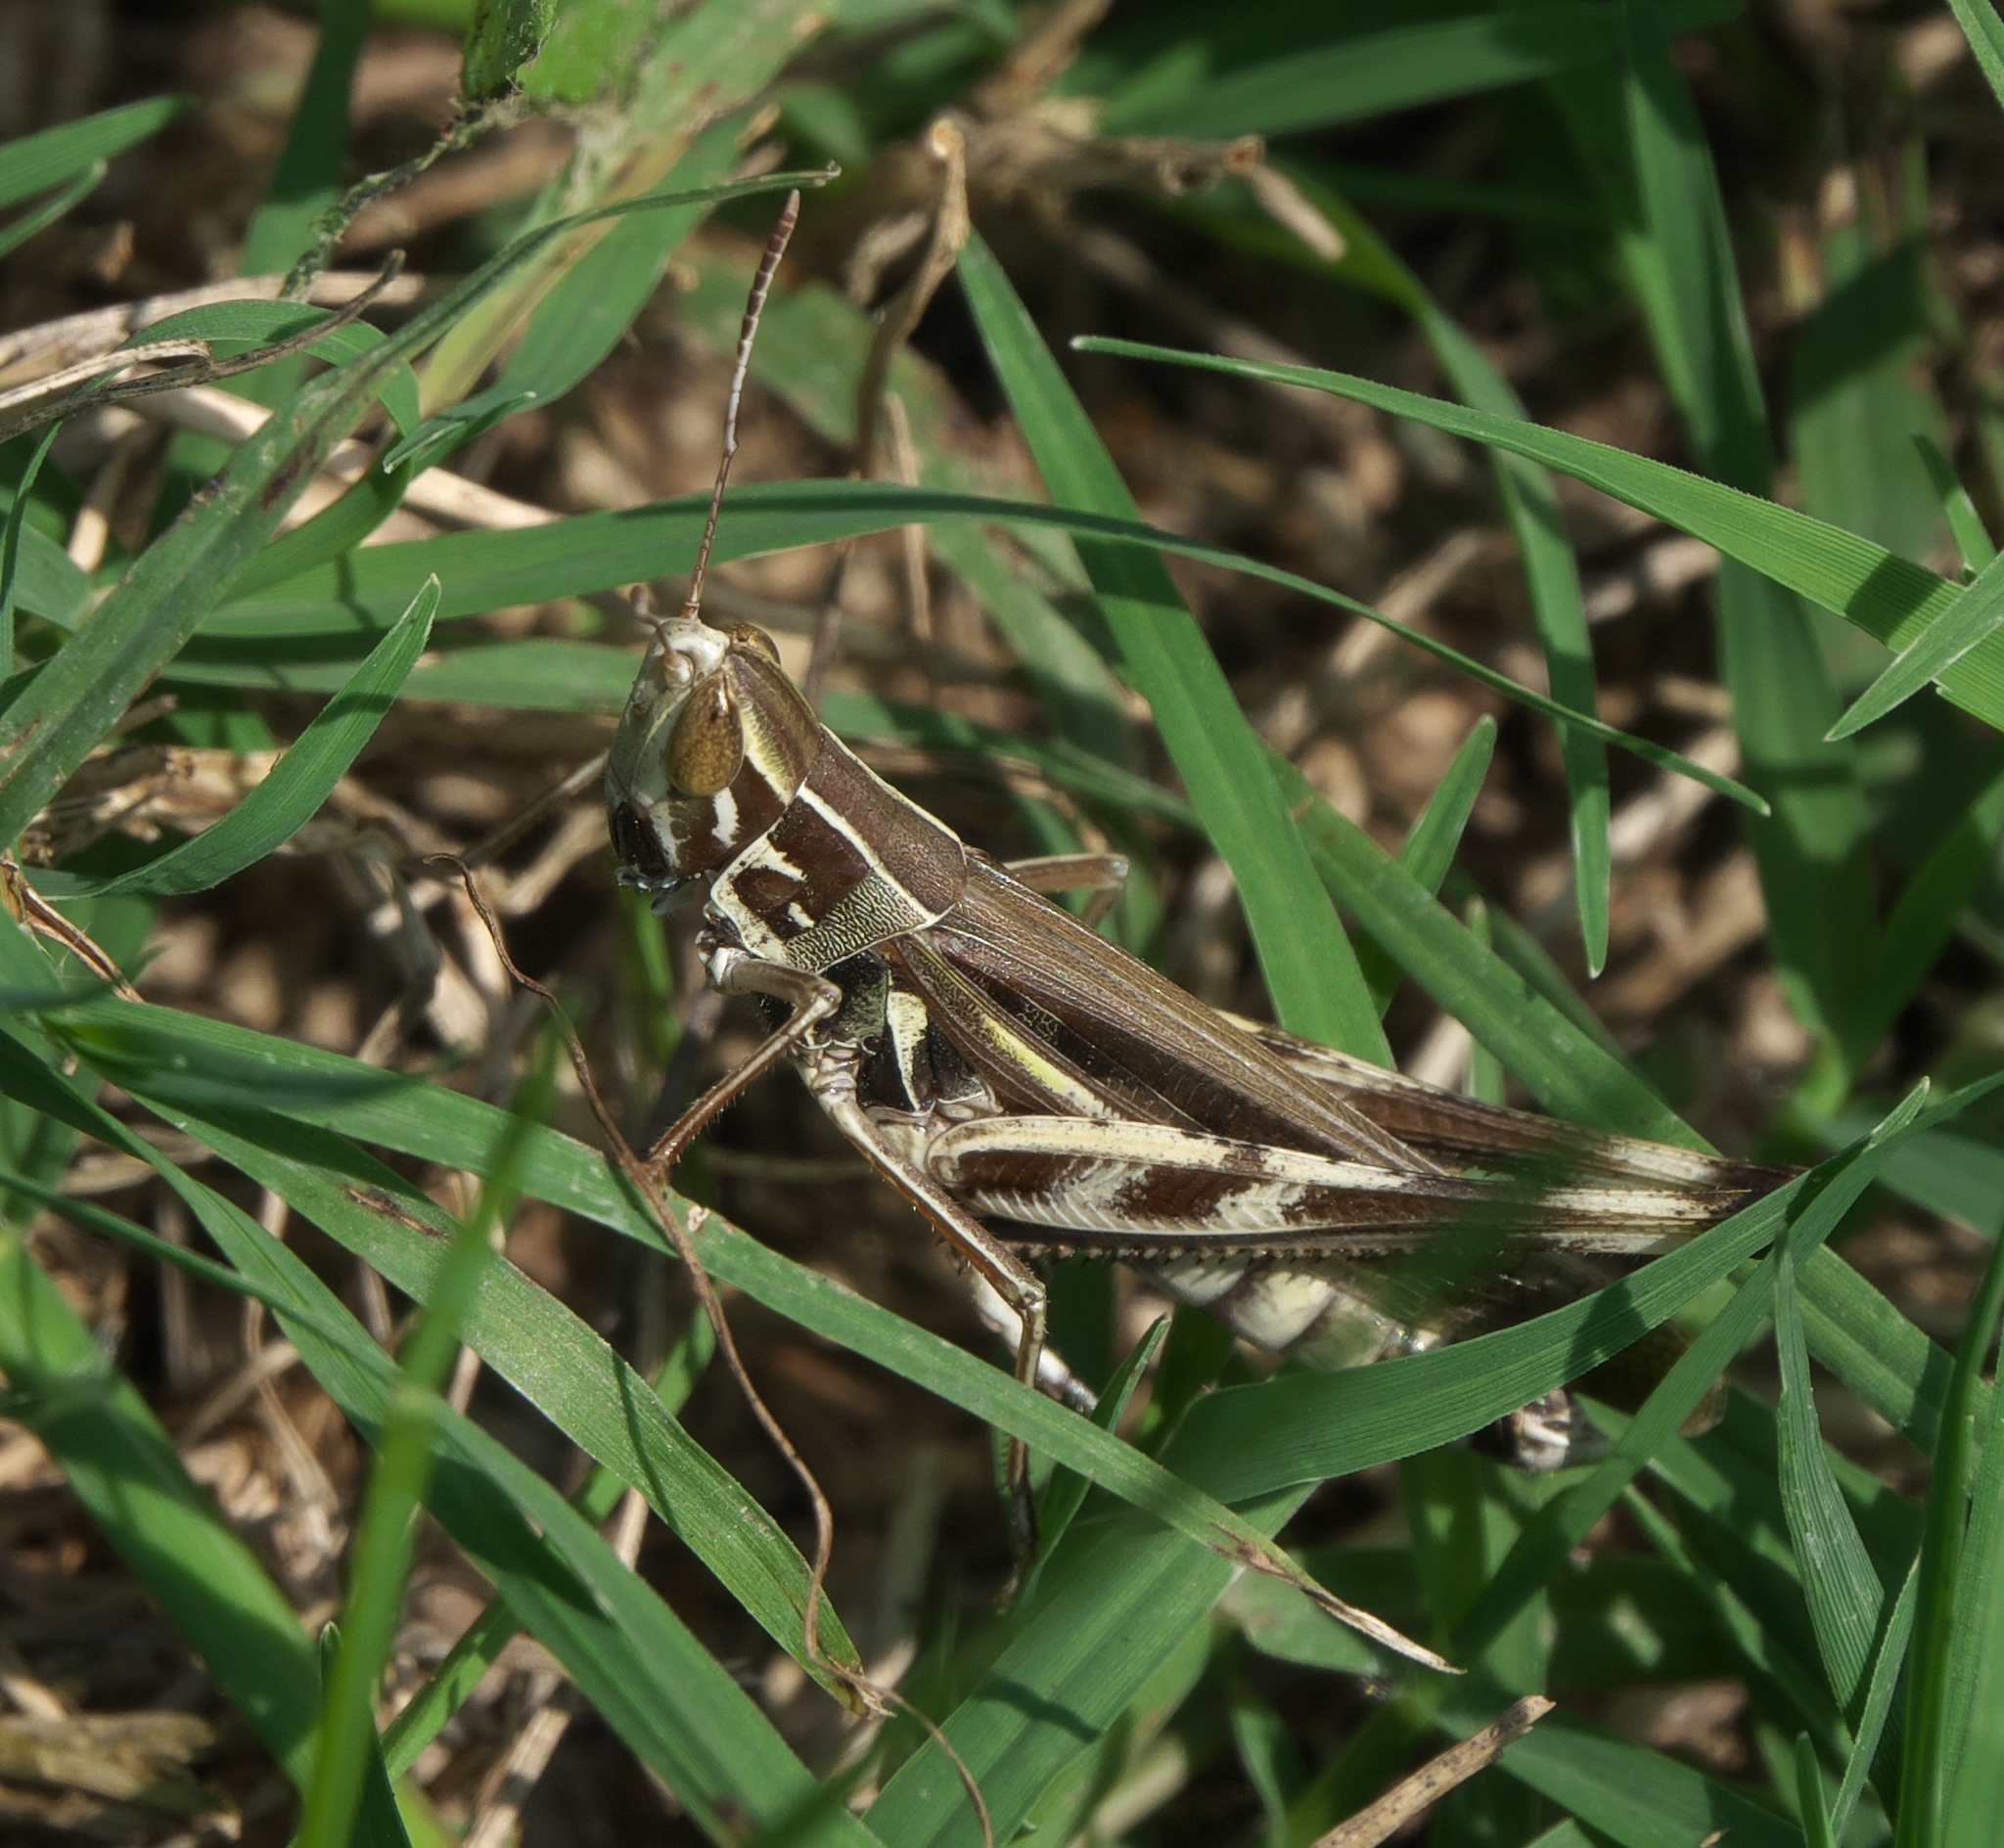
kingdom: Animalia
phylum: Arthropoda
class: Insecta
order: Orthoptera
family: Acrididae
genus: Syrbula
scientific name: Syrbula admirabilis
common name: Handsome grasshopper
